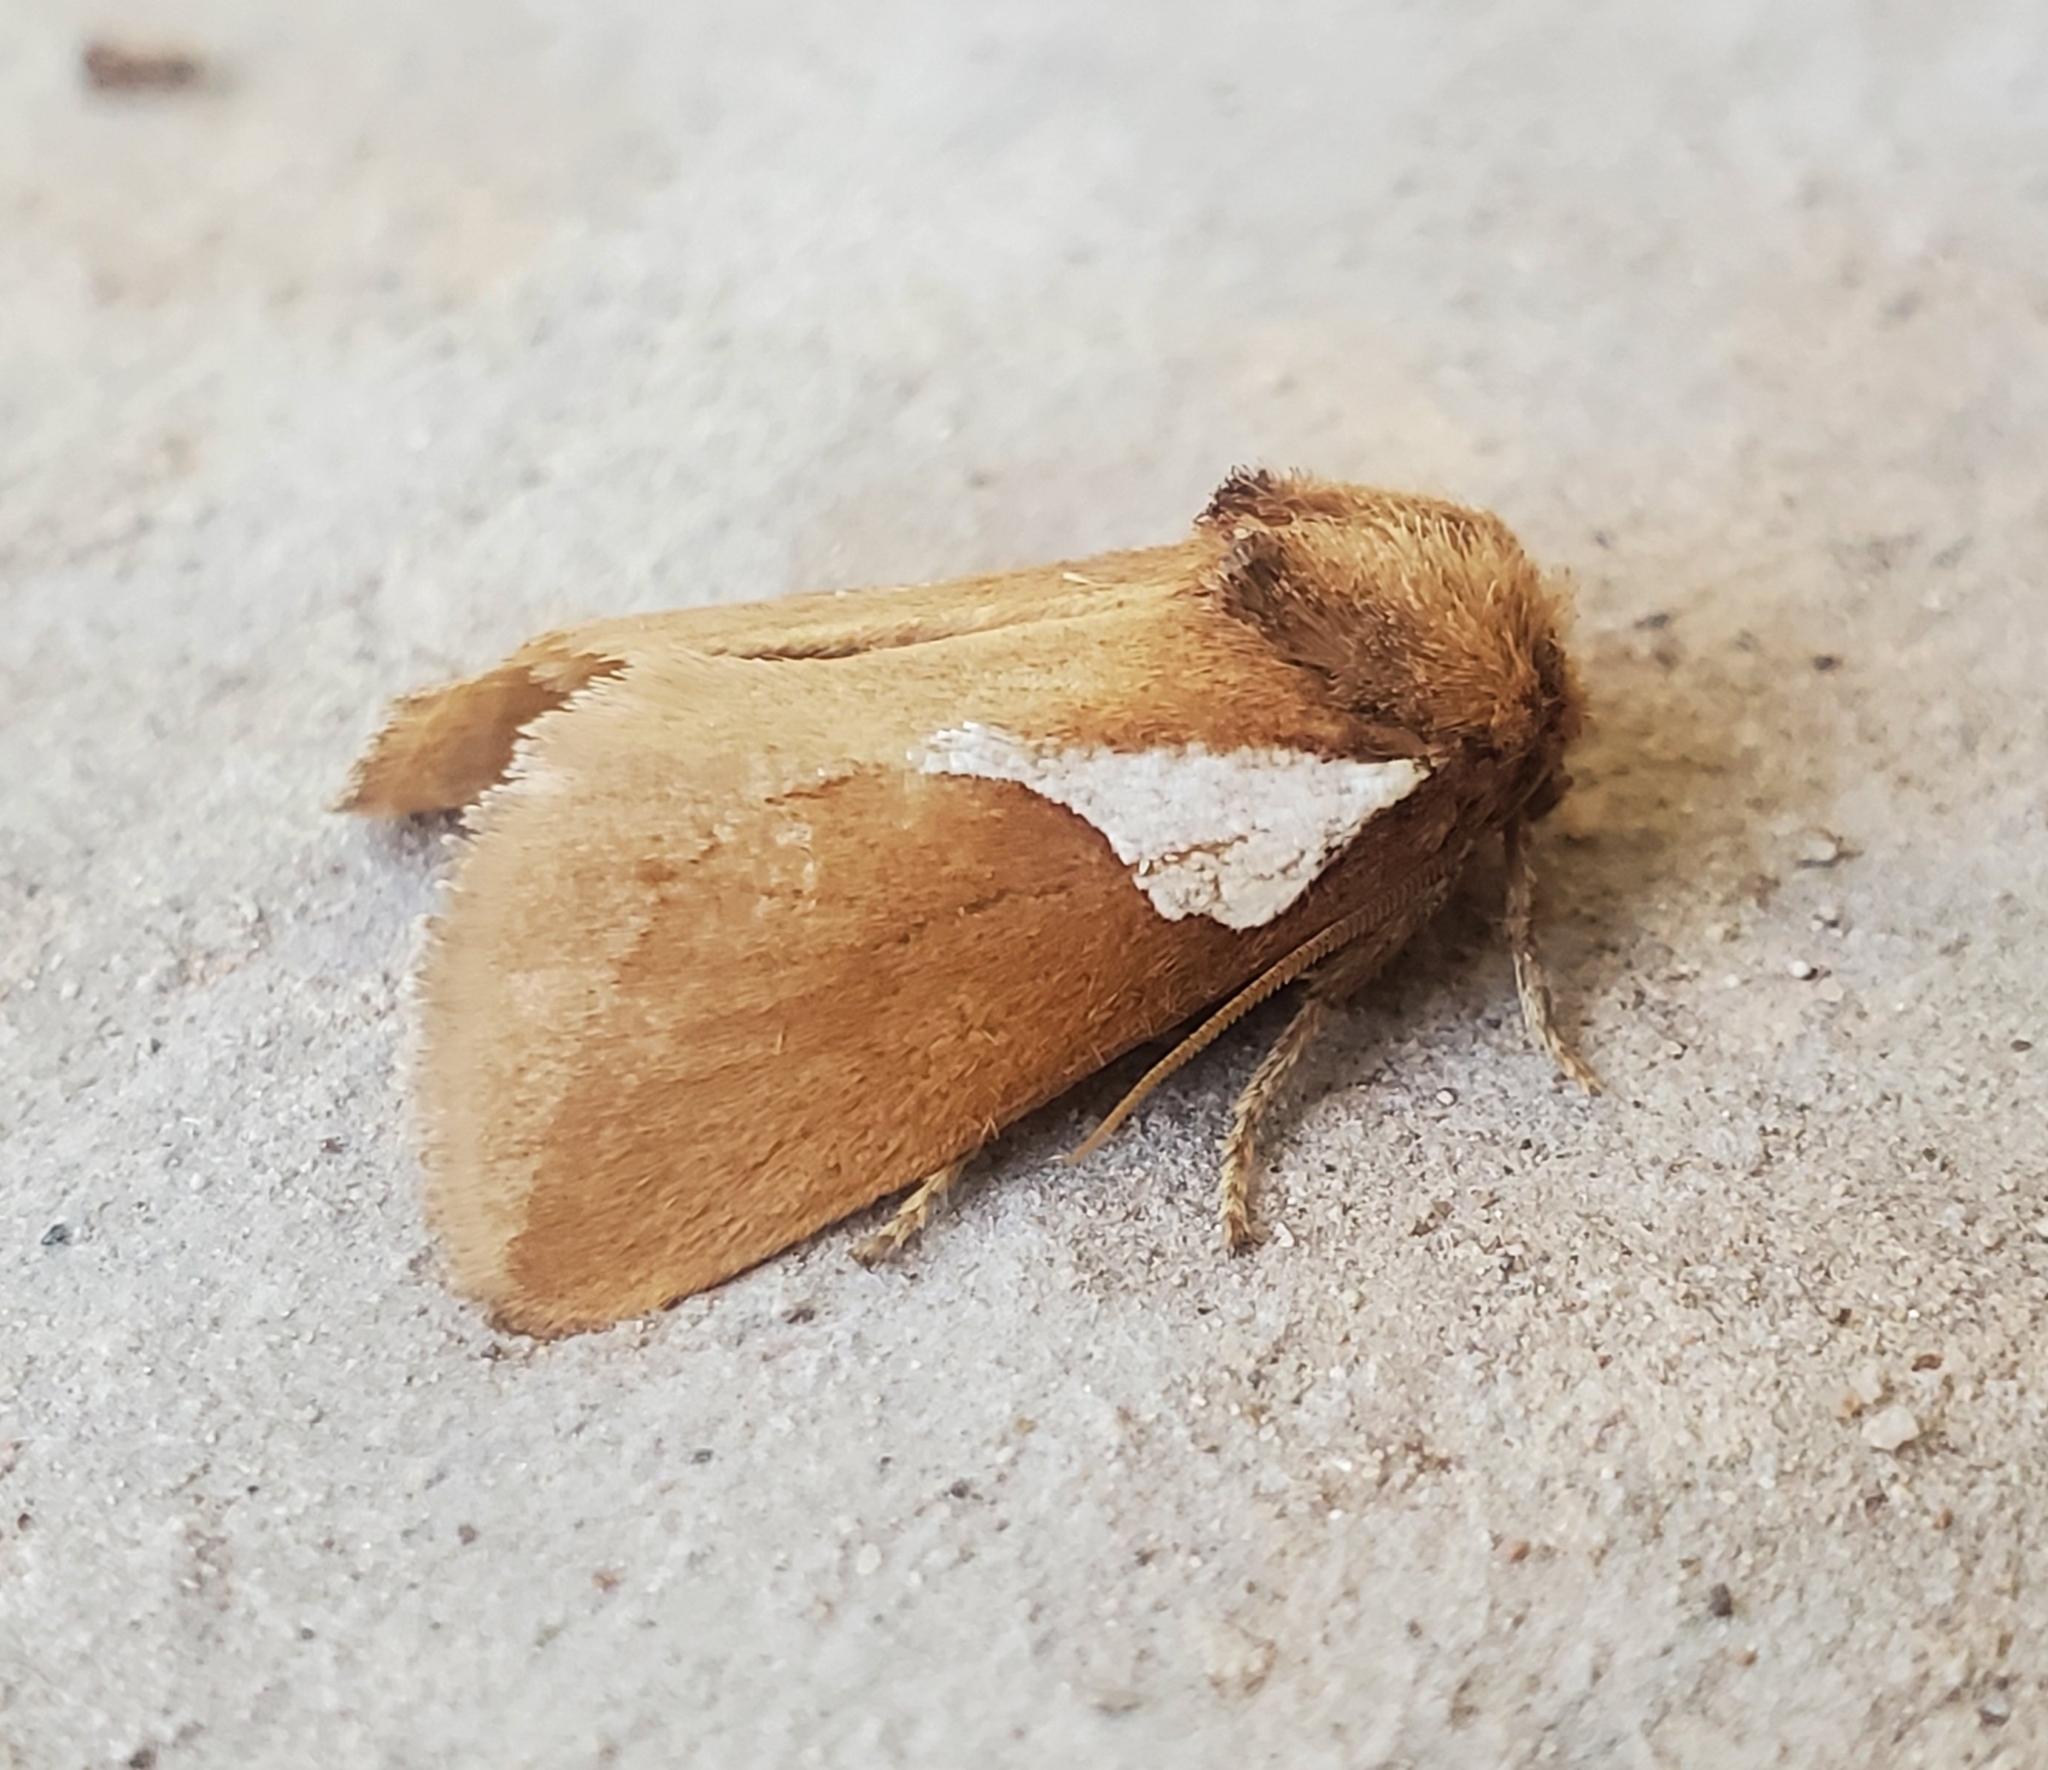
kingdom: Animalia
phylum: Arthropoda
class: Insecta
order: Lepidoptera
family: Limacodidae
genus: Prolimacodes
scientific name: Prolimacodes trigona
